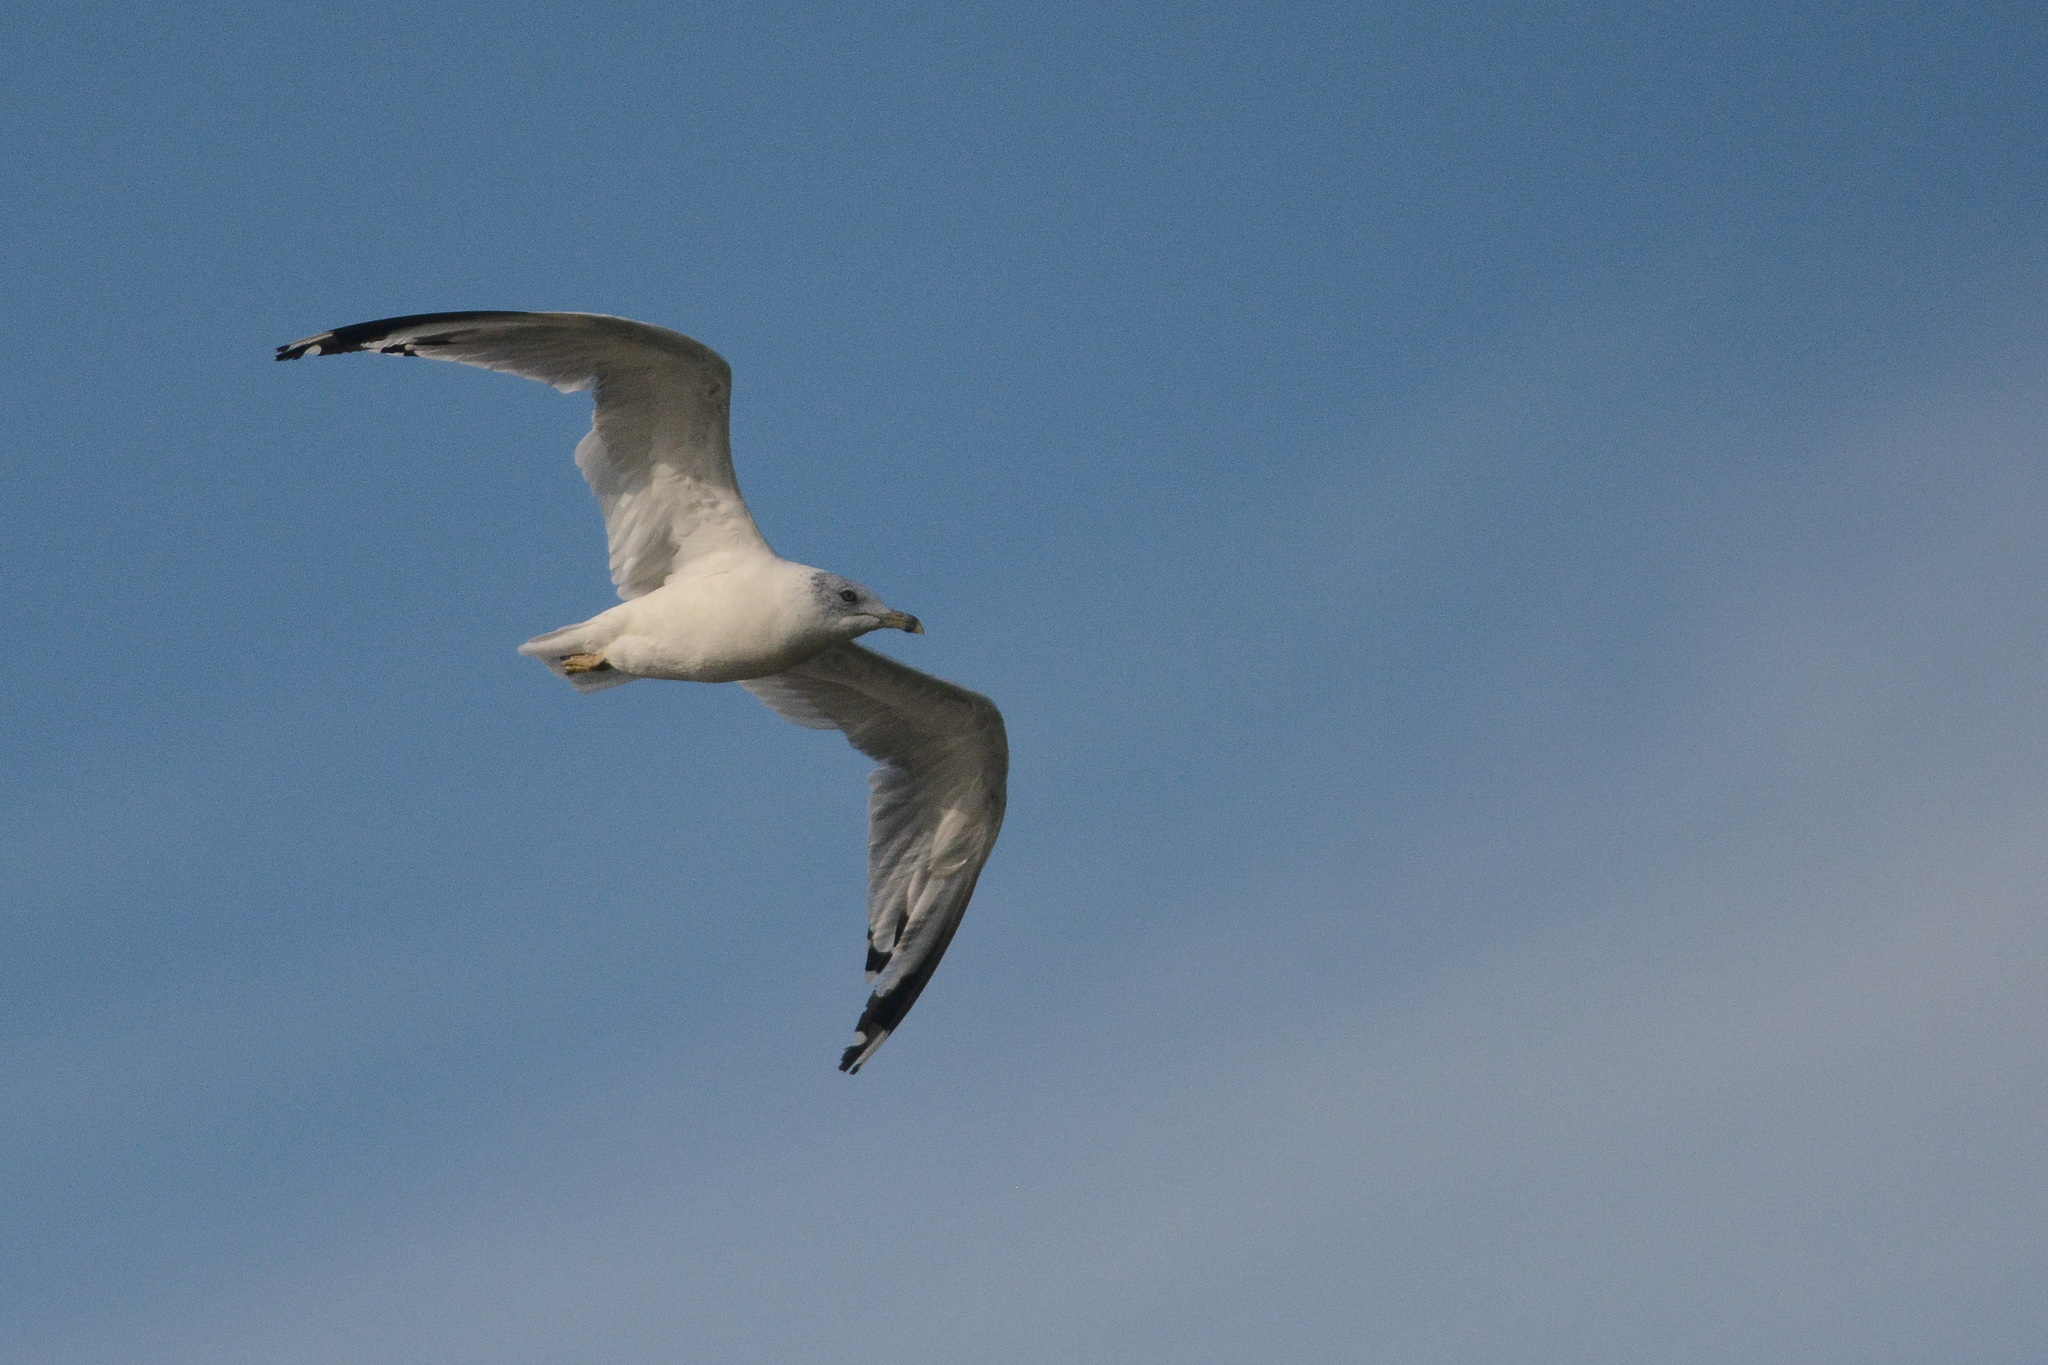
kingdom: Animalia
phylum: Chordata
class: Aves
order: Charadriiformes
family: Laridae
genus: Larus
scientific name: Larus delawarensis
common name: Ring-billed gull
